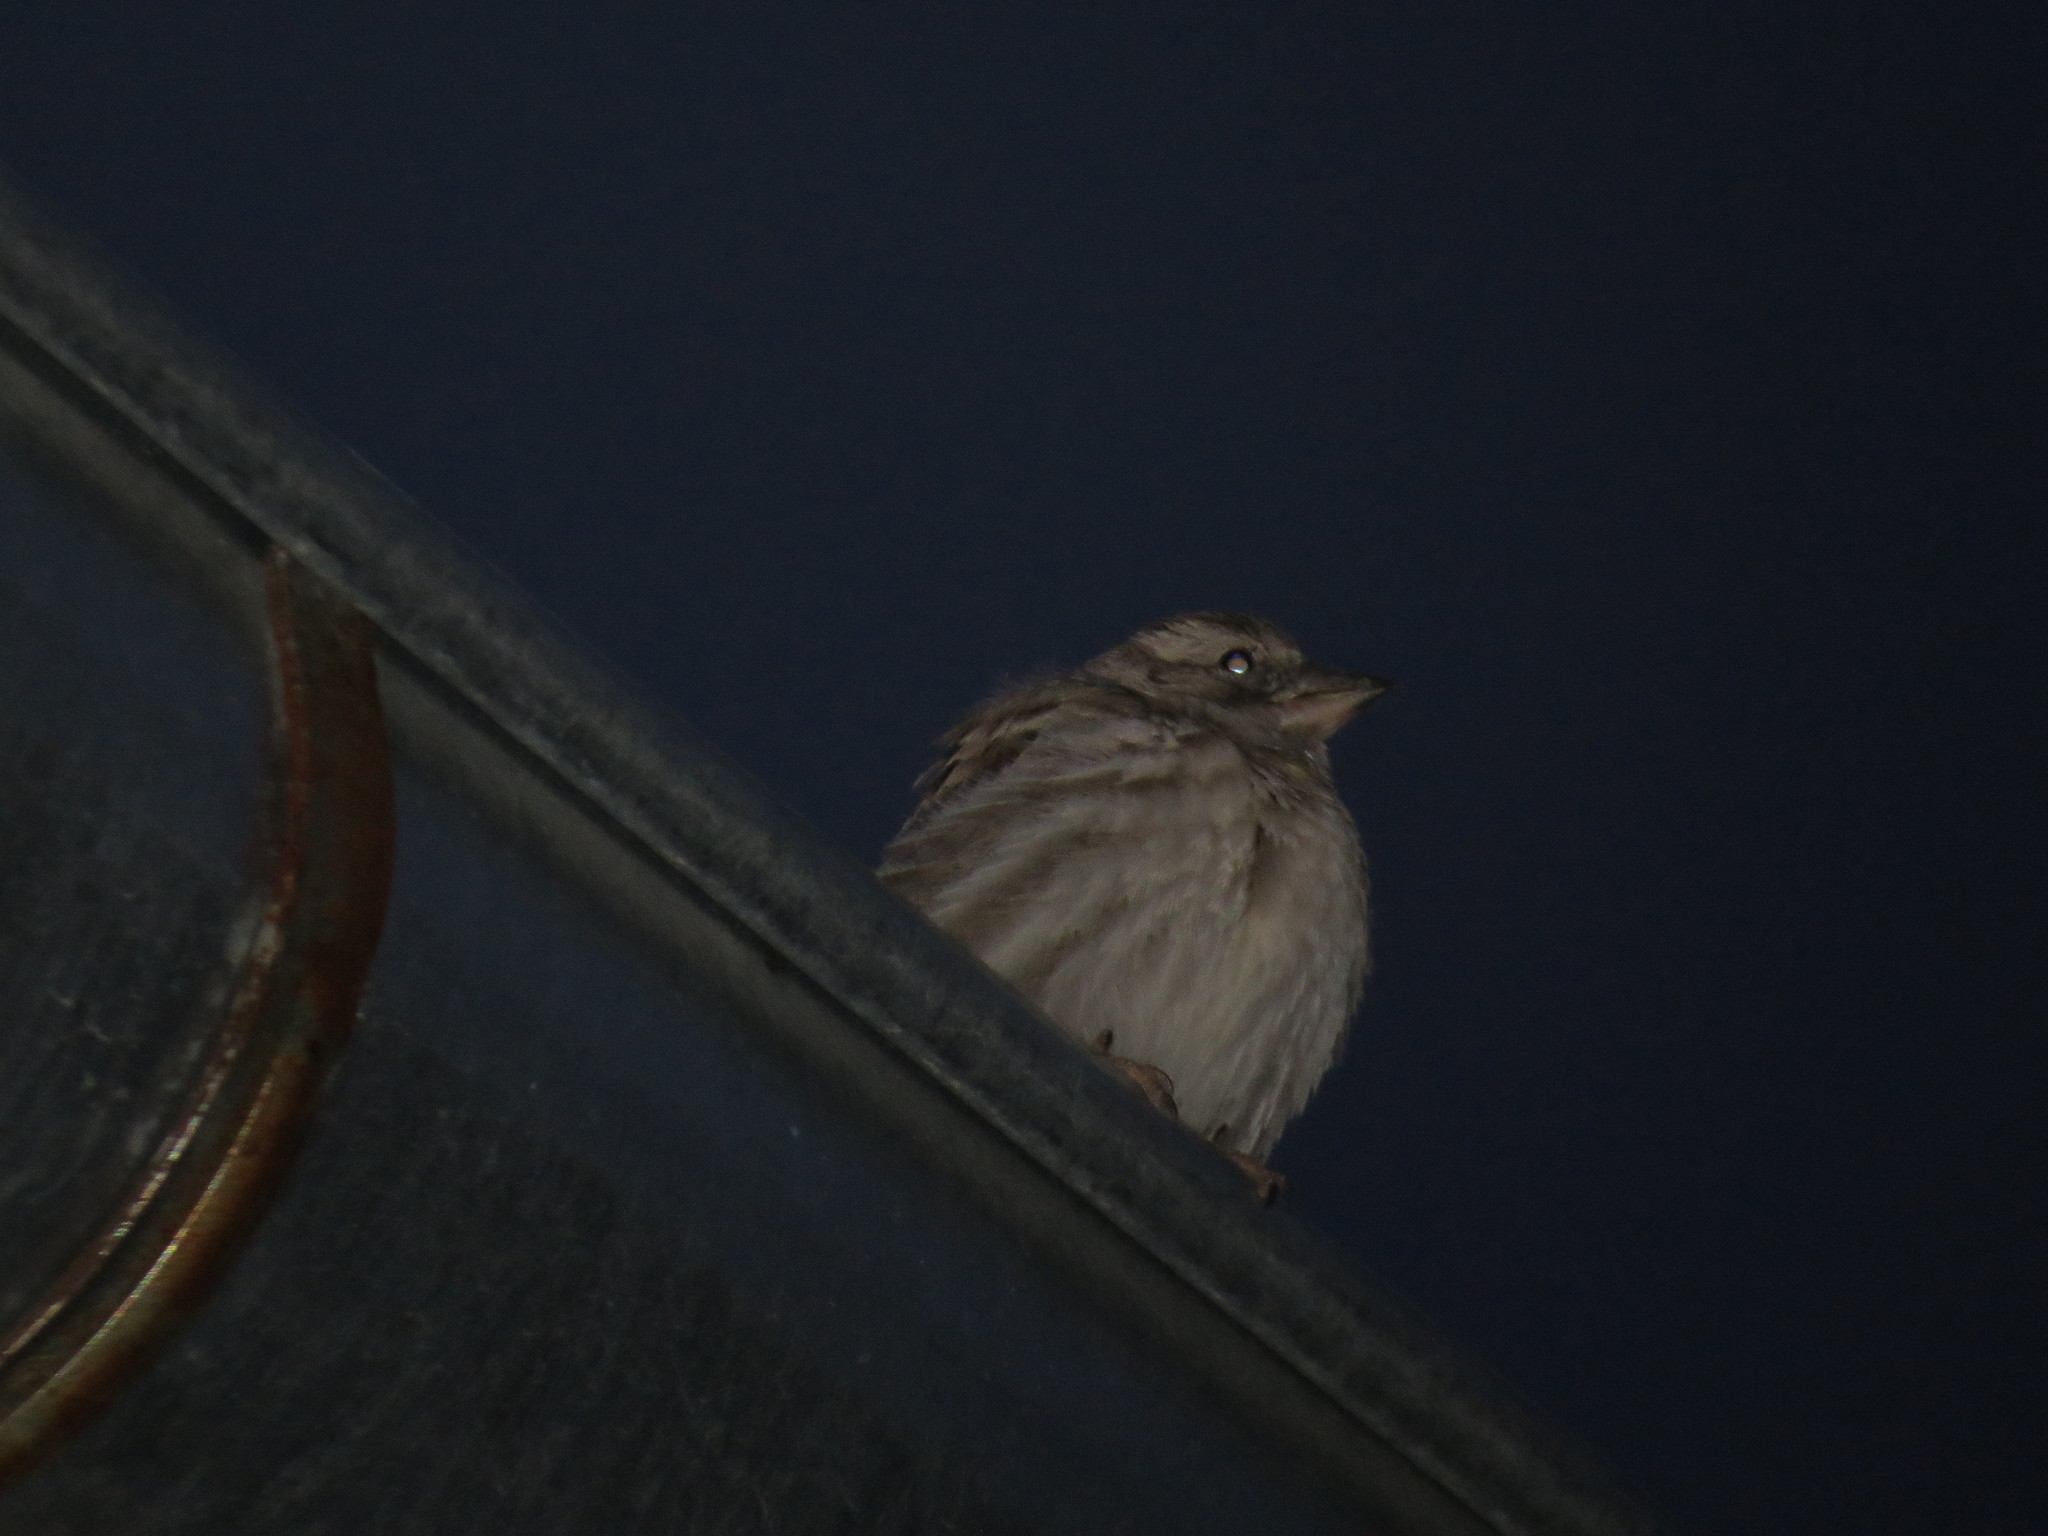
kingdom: Animalia
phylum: Chordata
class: Aves
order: Passeriformes
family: Passeridae
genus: Petronia
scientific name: Petronia petronia
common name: Rock sparrow
